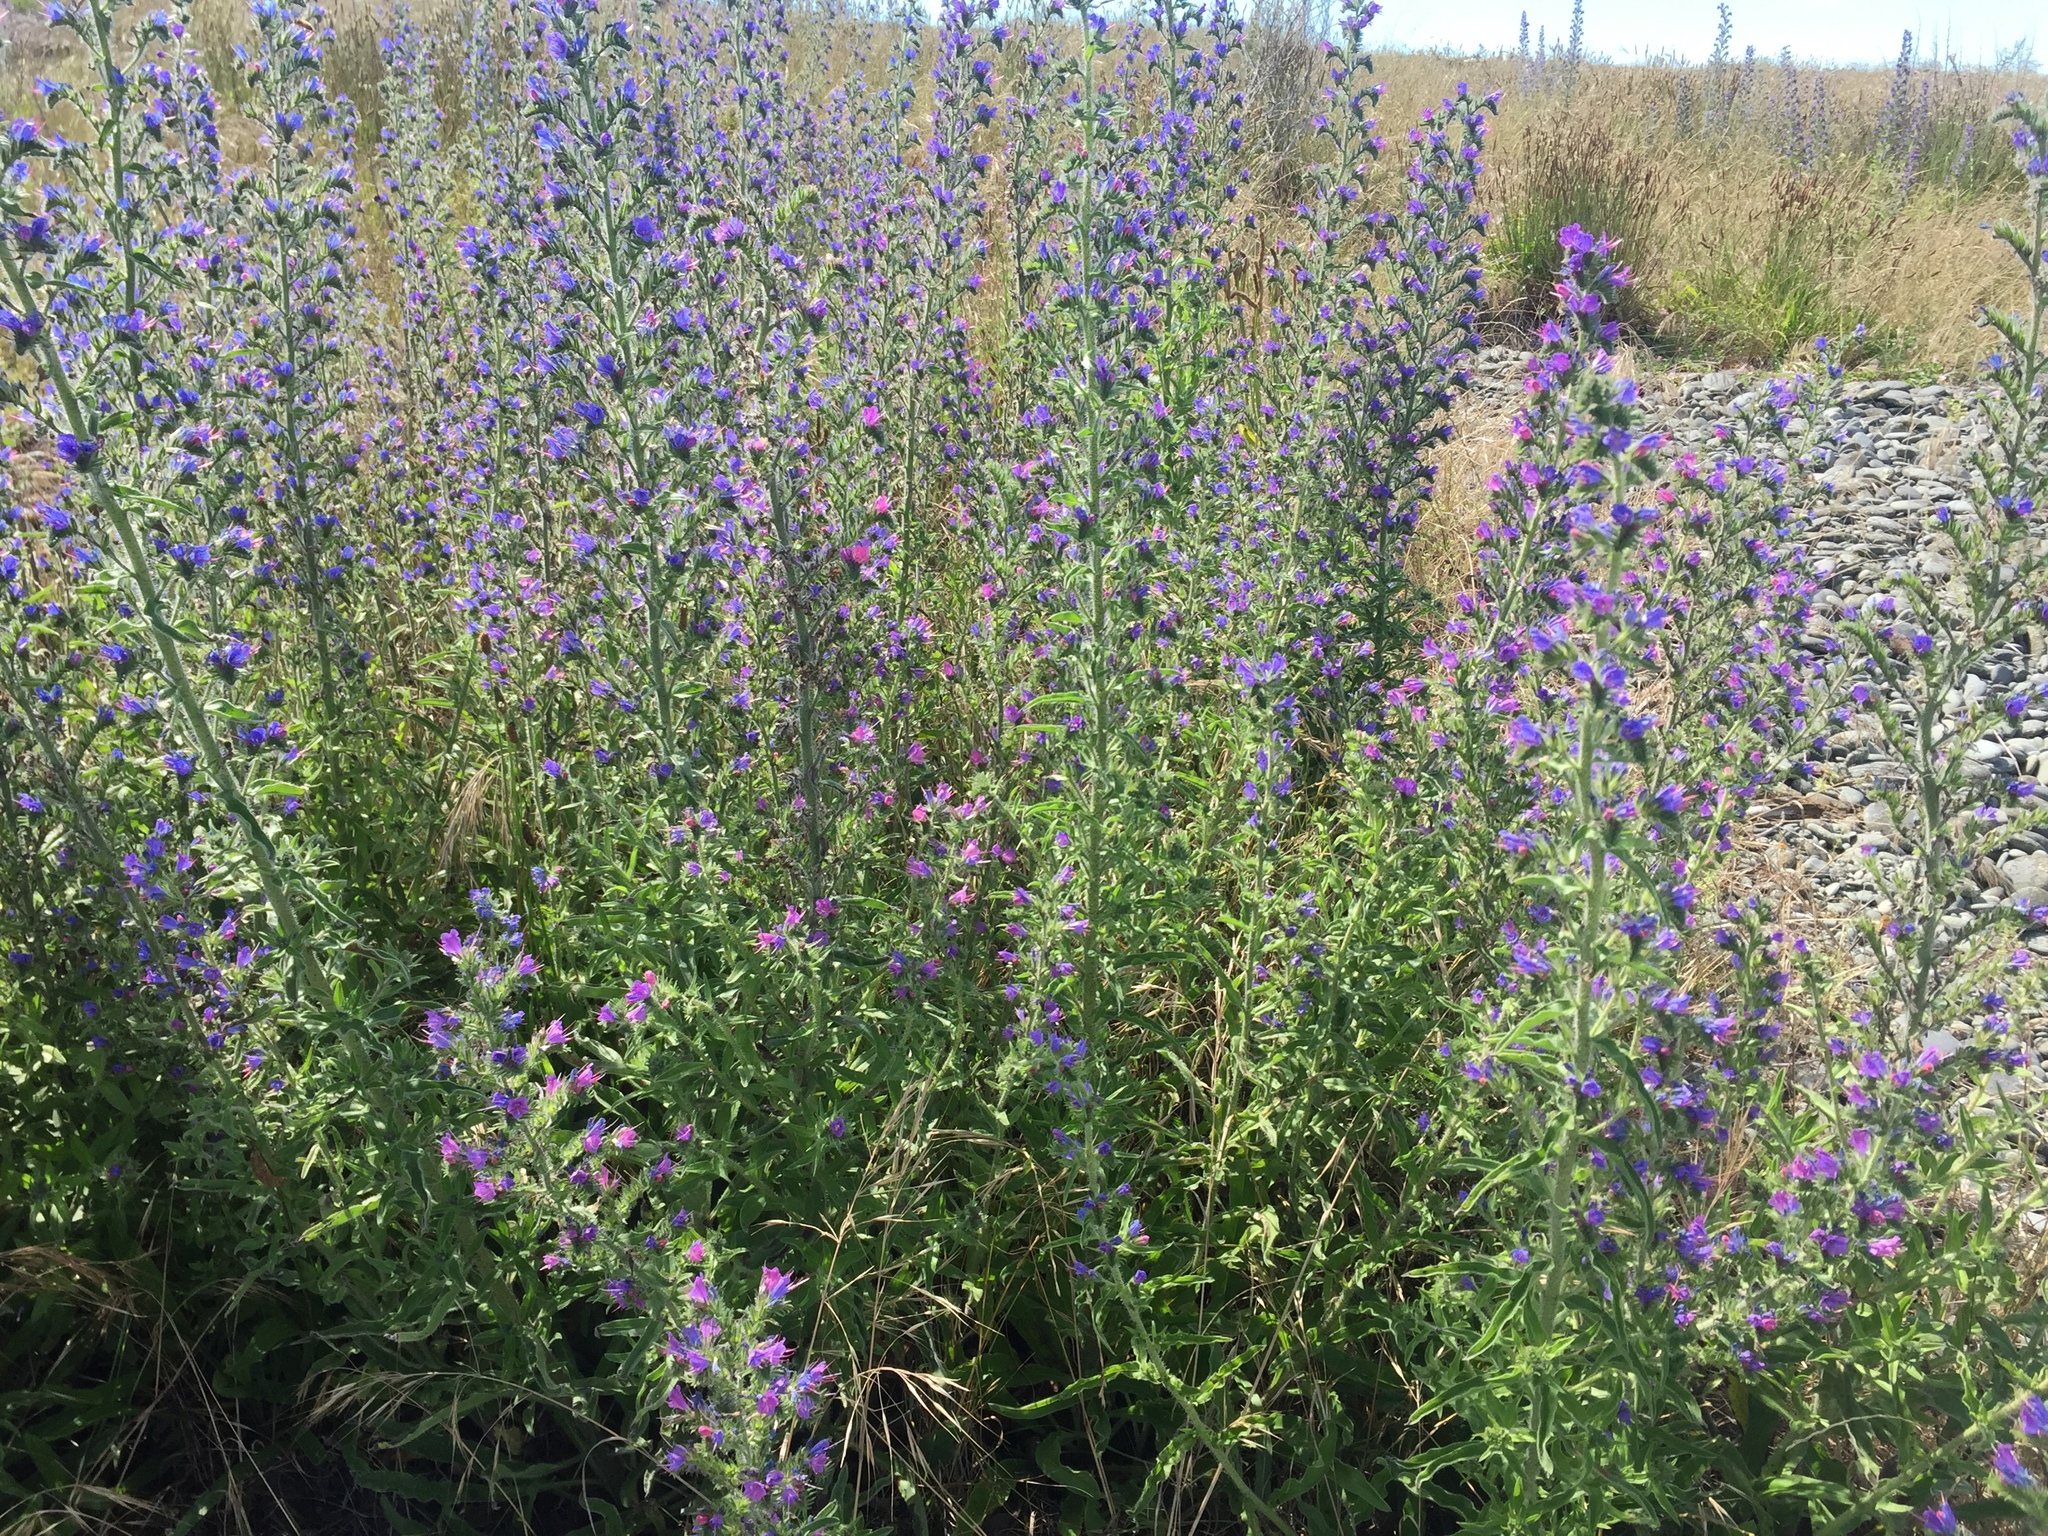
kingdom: Plantae
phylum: Tracheophyta
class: Magnoliopsida
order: Boraginales
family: Boraginaceae
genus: Echium
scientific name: Echium vulgare
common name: Common viper's bugloss
